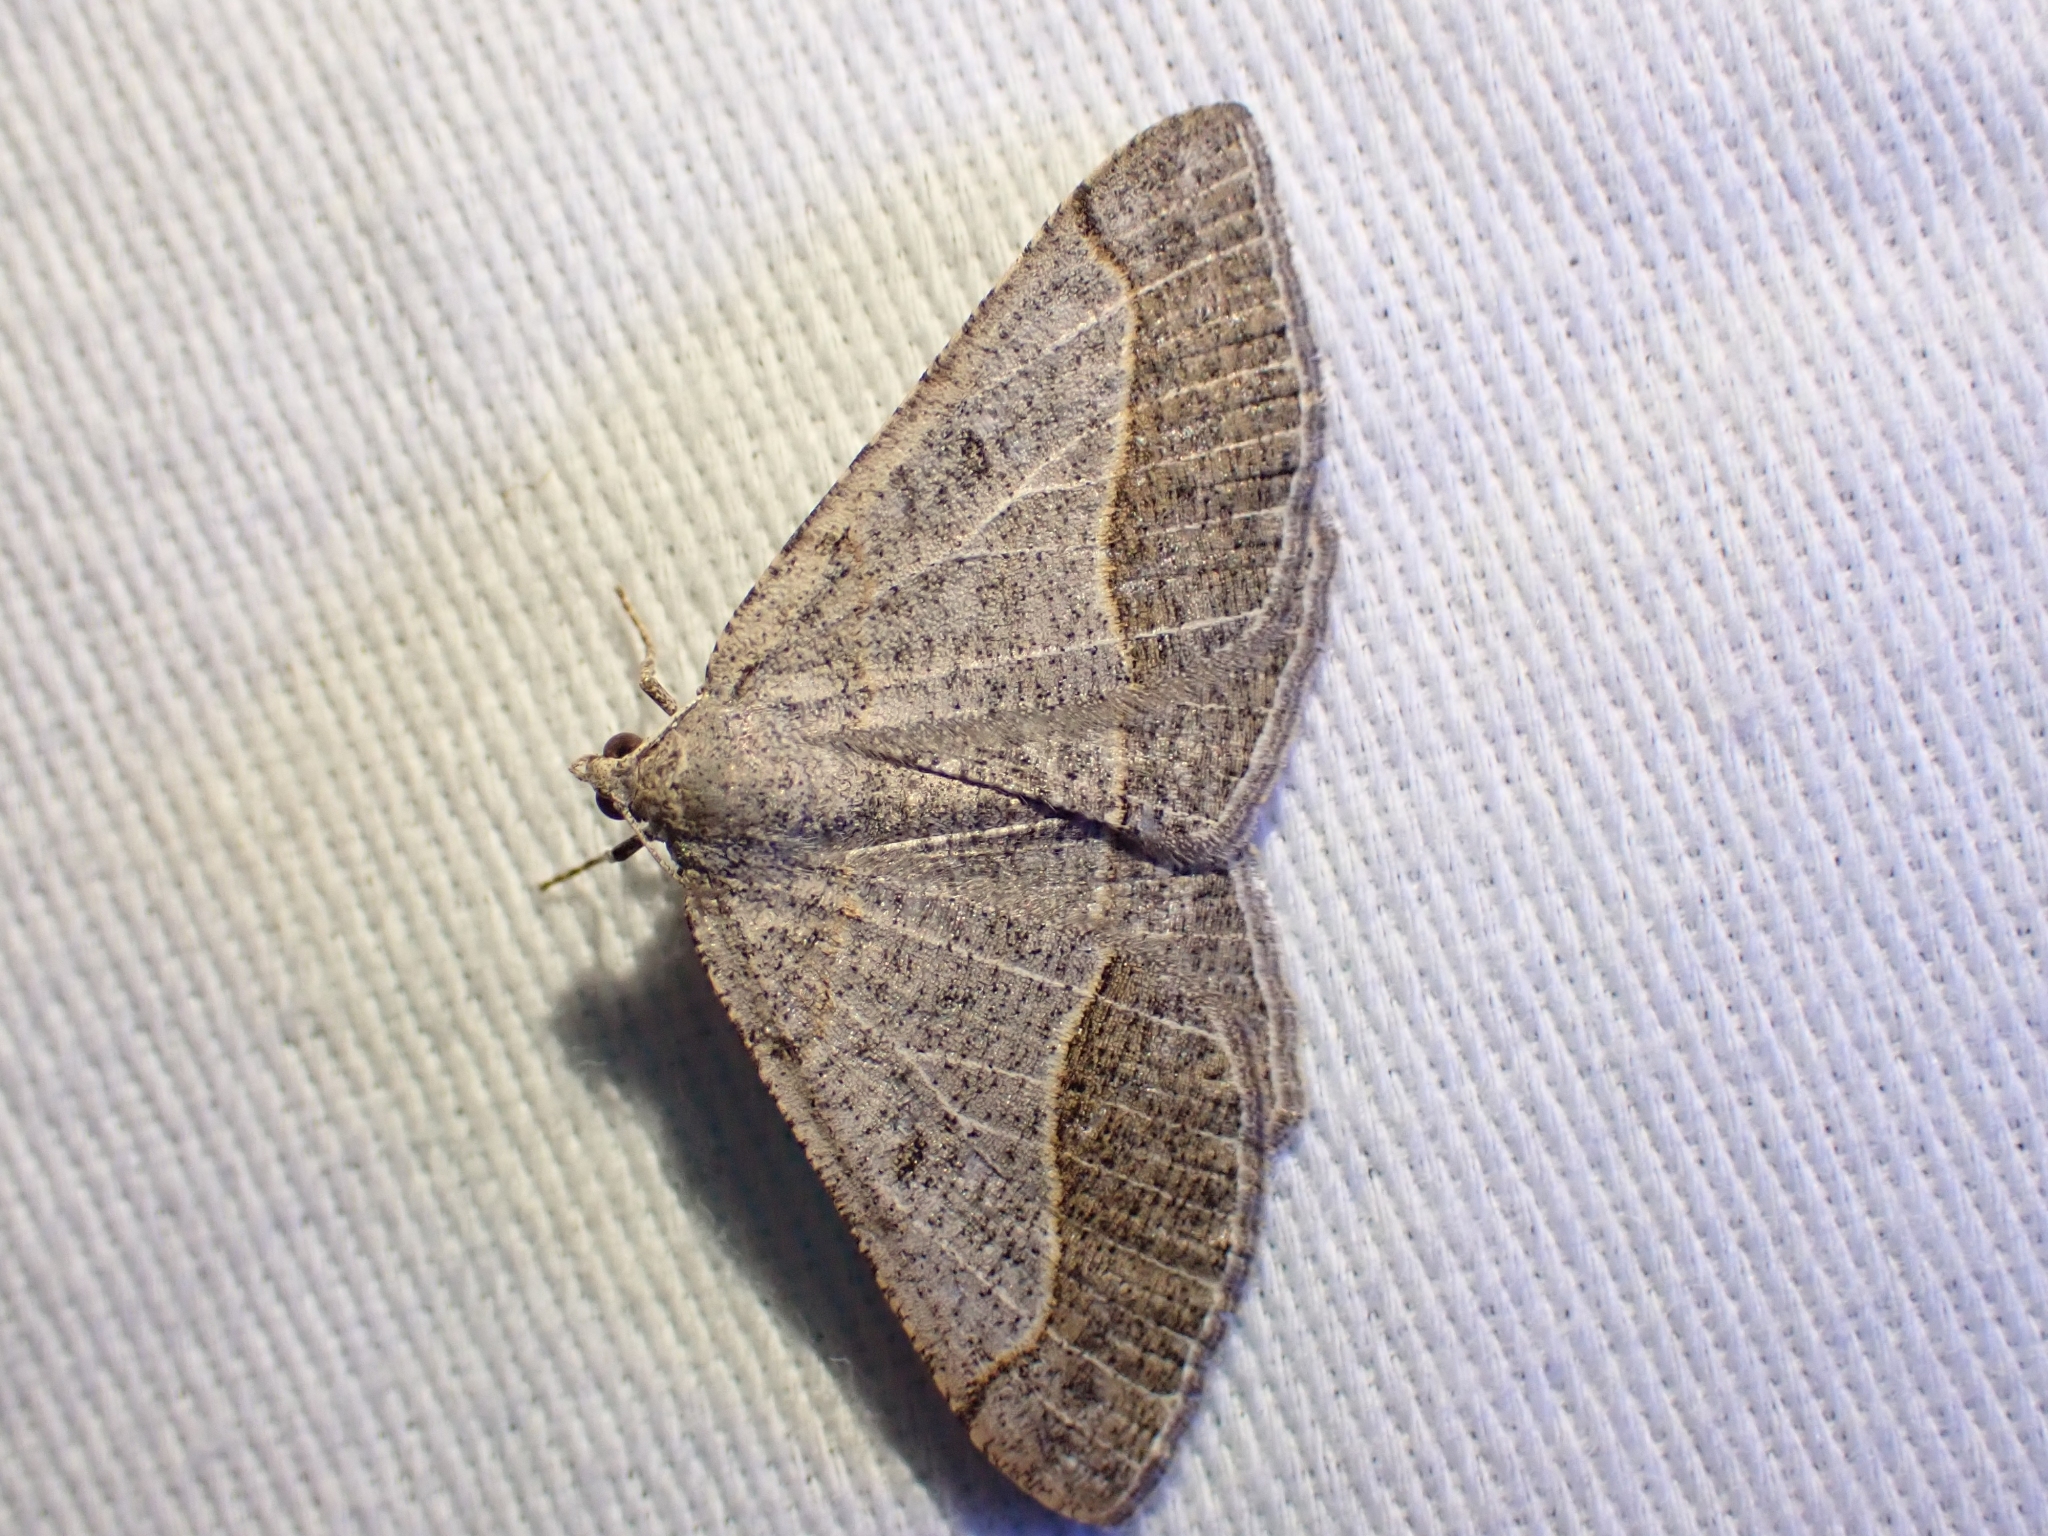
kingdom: Animalia
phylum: Arthropoda
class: Insecta
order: Lepidoptera
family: Geometridae
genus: Eumacaria
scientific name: Eumacaria madopata
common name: Brown-bordered geometer
